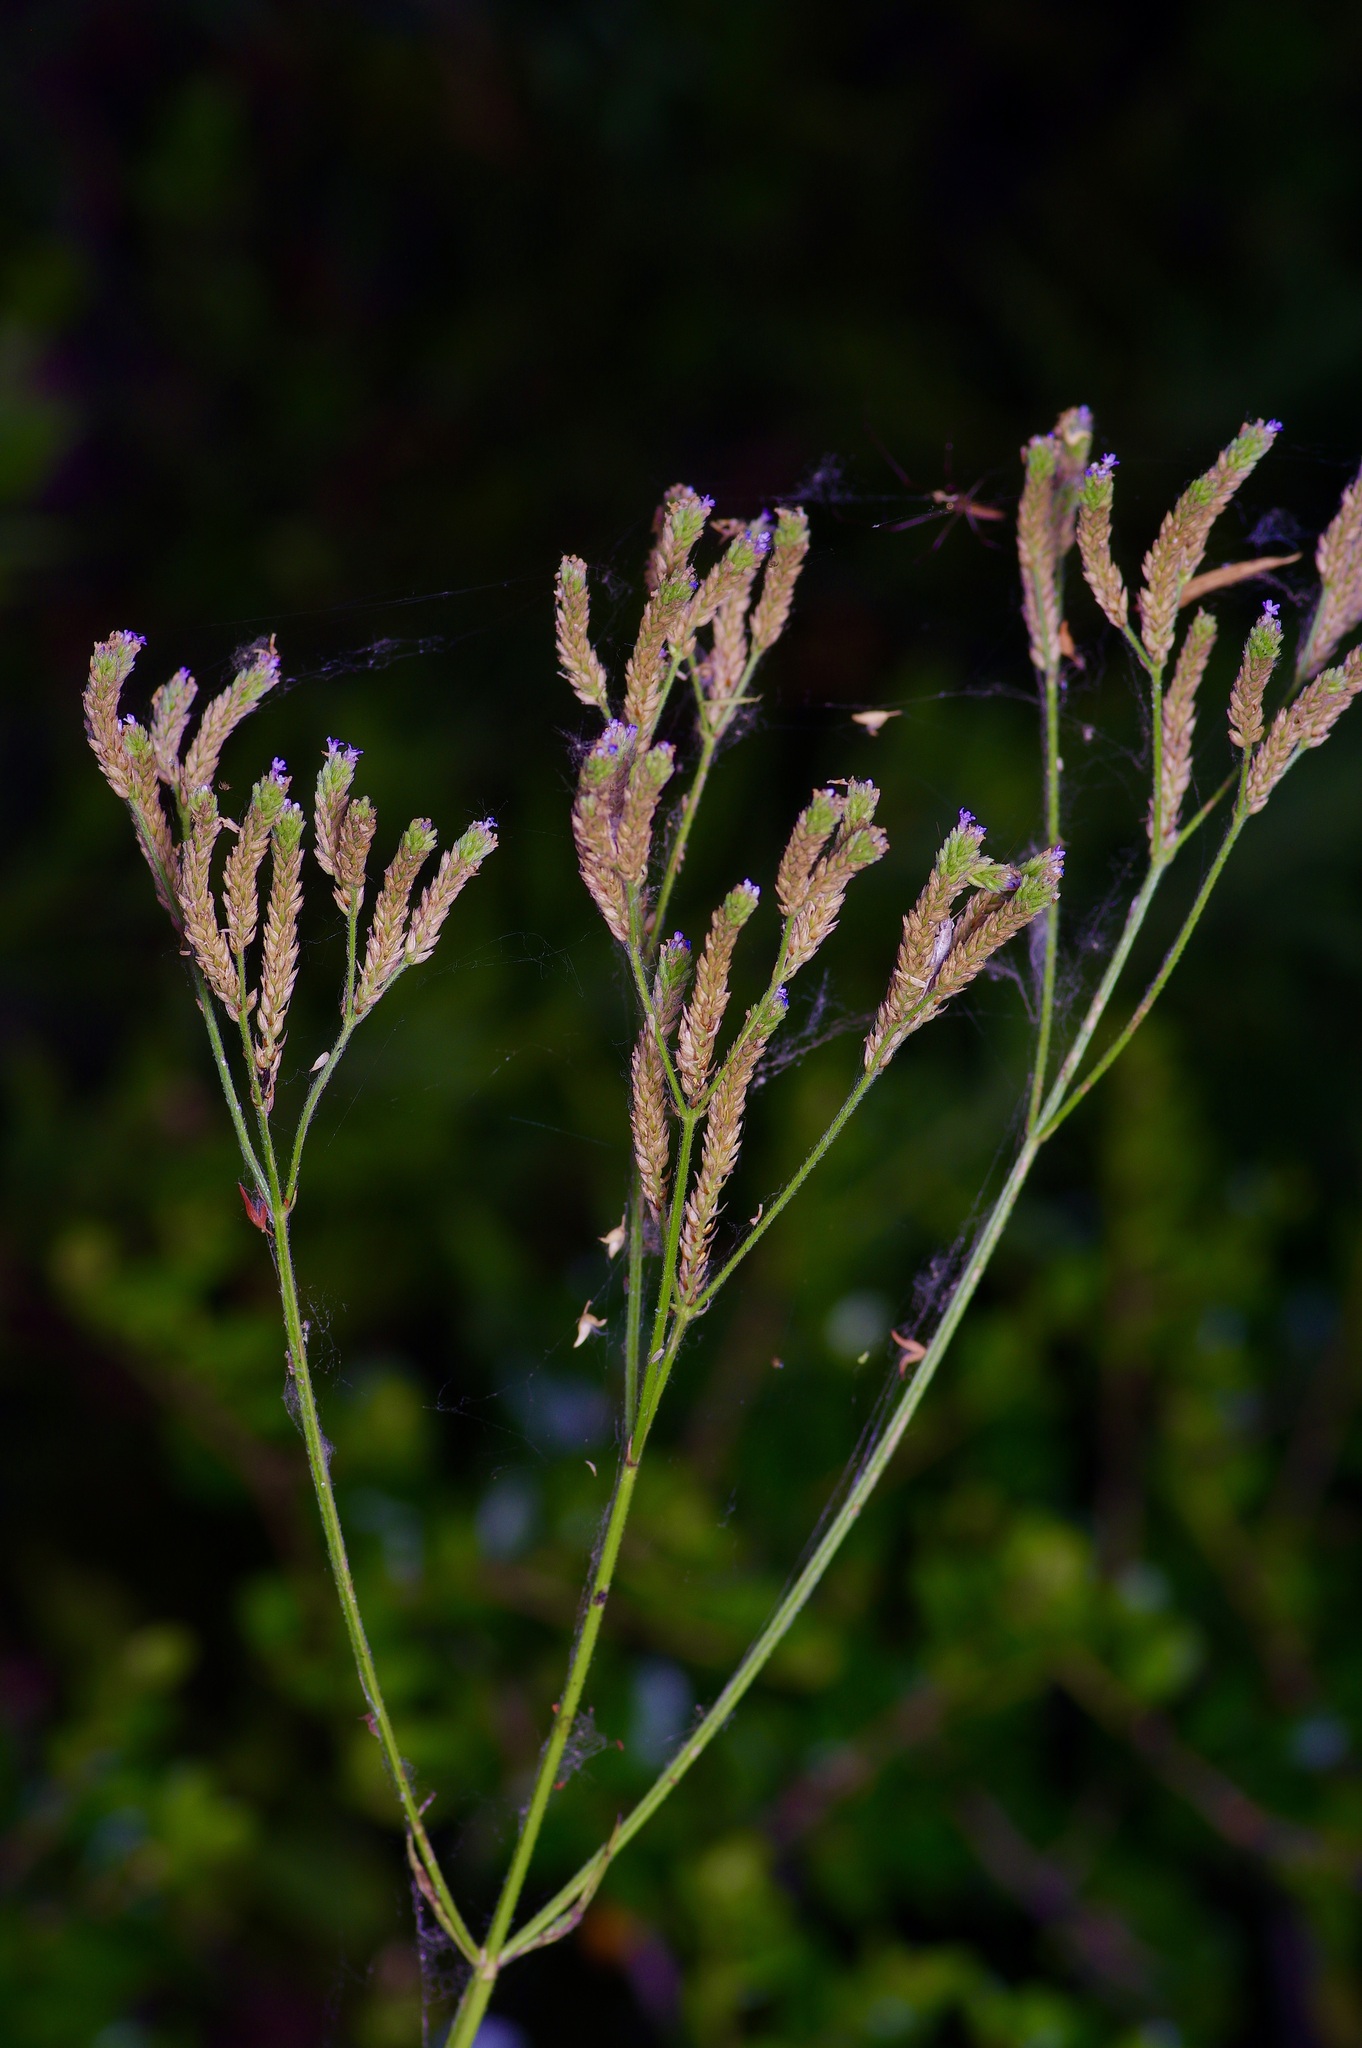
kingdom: Plantae
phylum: Tracheophyta
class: Magnoliopsida
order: Lamiales
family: Verbenaceae
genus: Verbena
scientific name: Verbena brasiliensis
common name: Brazilian vervain
